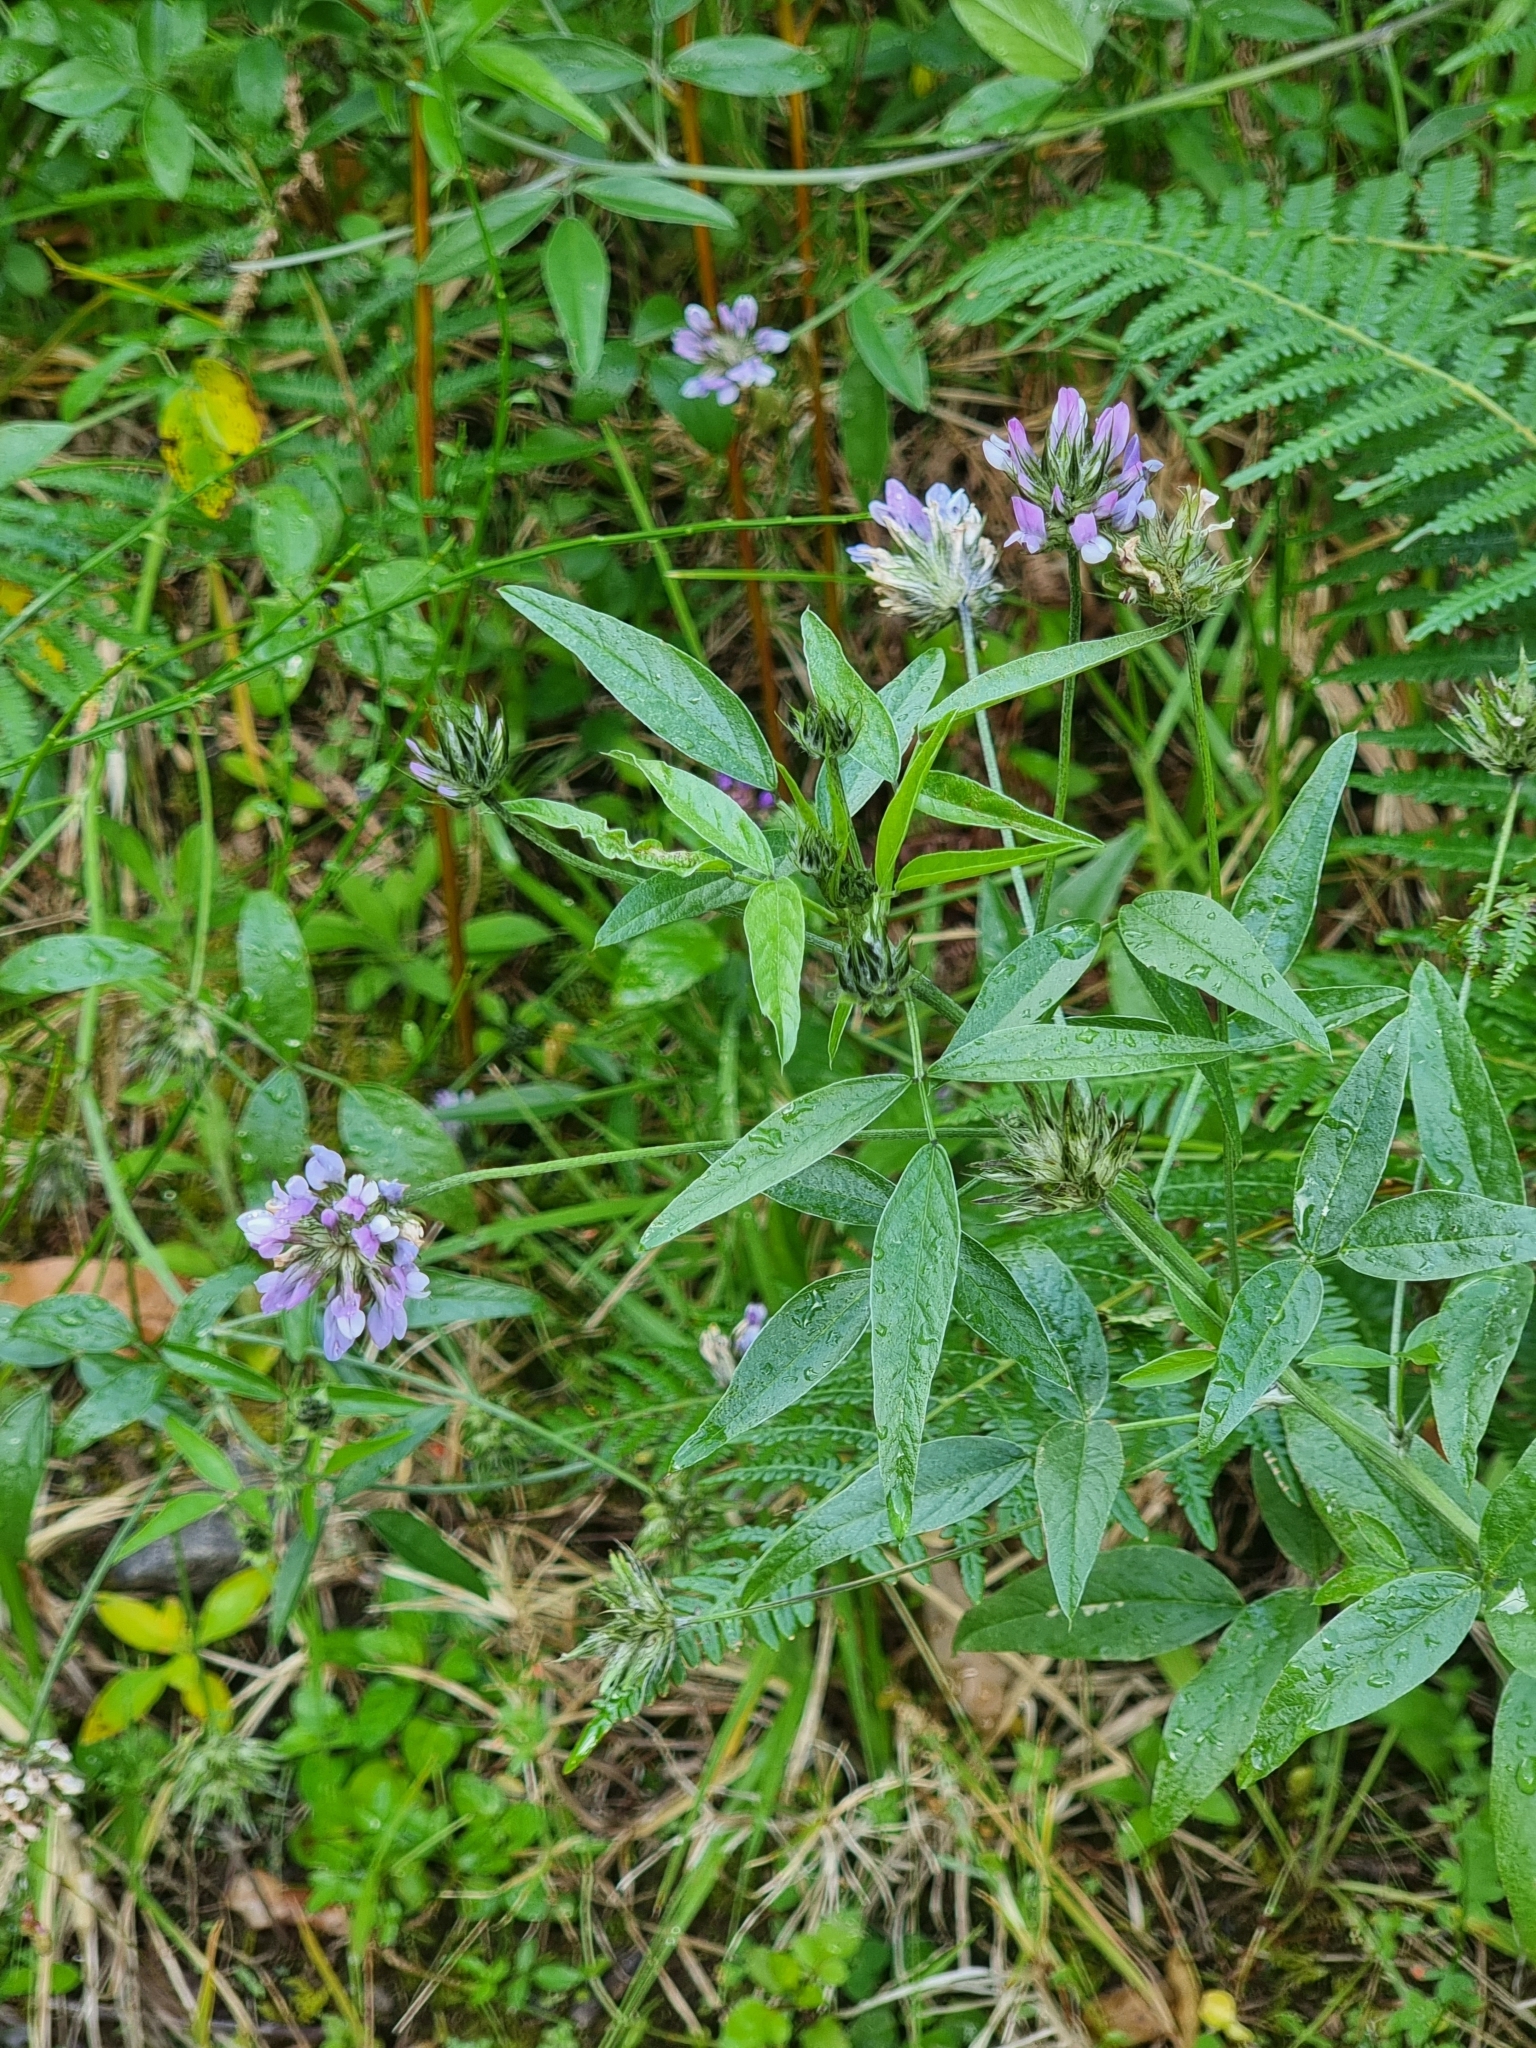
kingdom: Plantae
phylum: Tracheophyta
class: Magnoliopsida
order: Fabales
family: Fabaceae
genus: Bituminaria
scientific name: Bituminaria bituminosa
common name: Arabian pea
